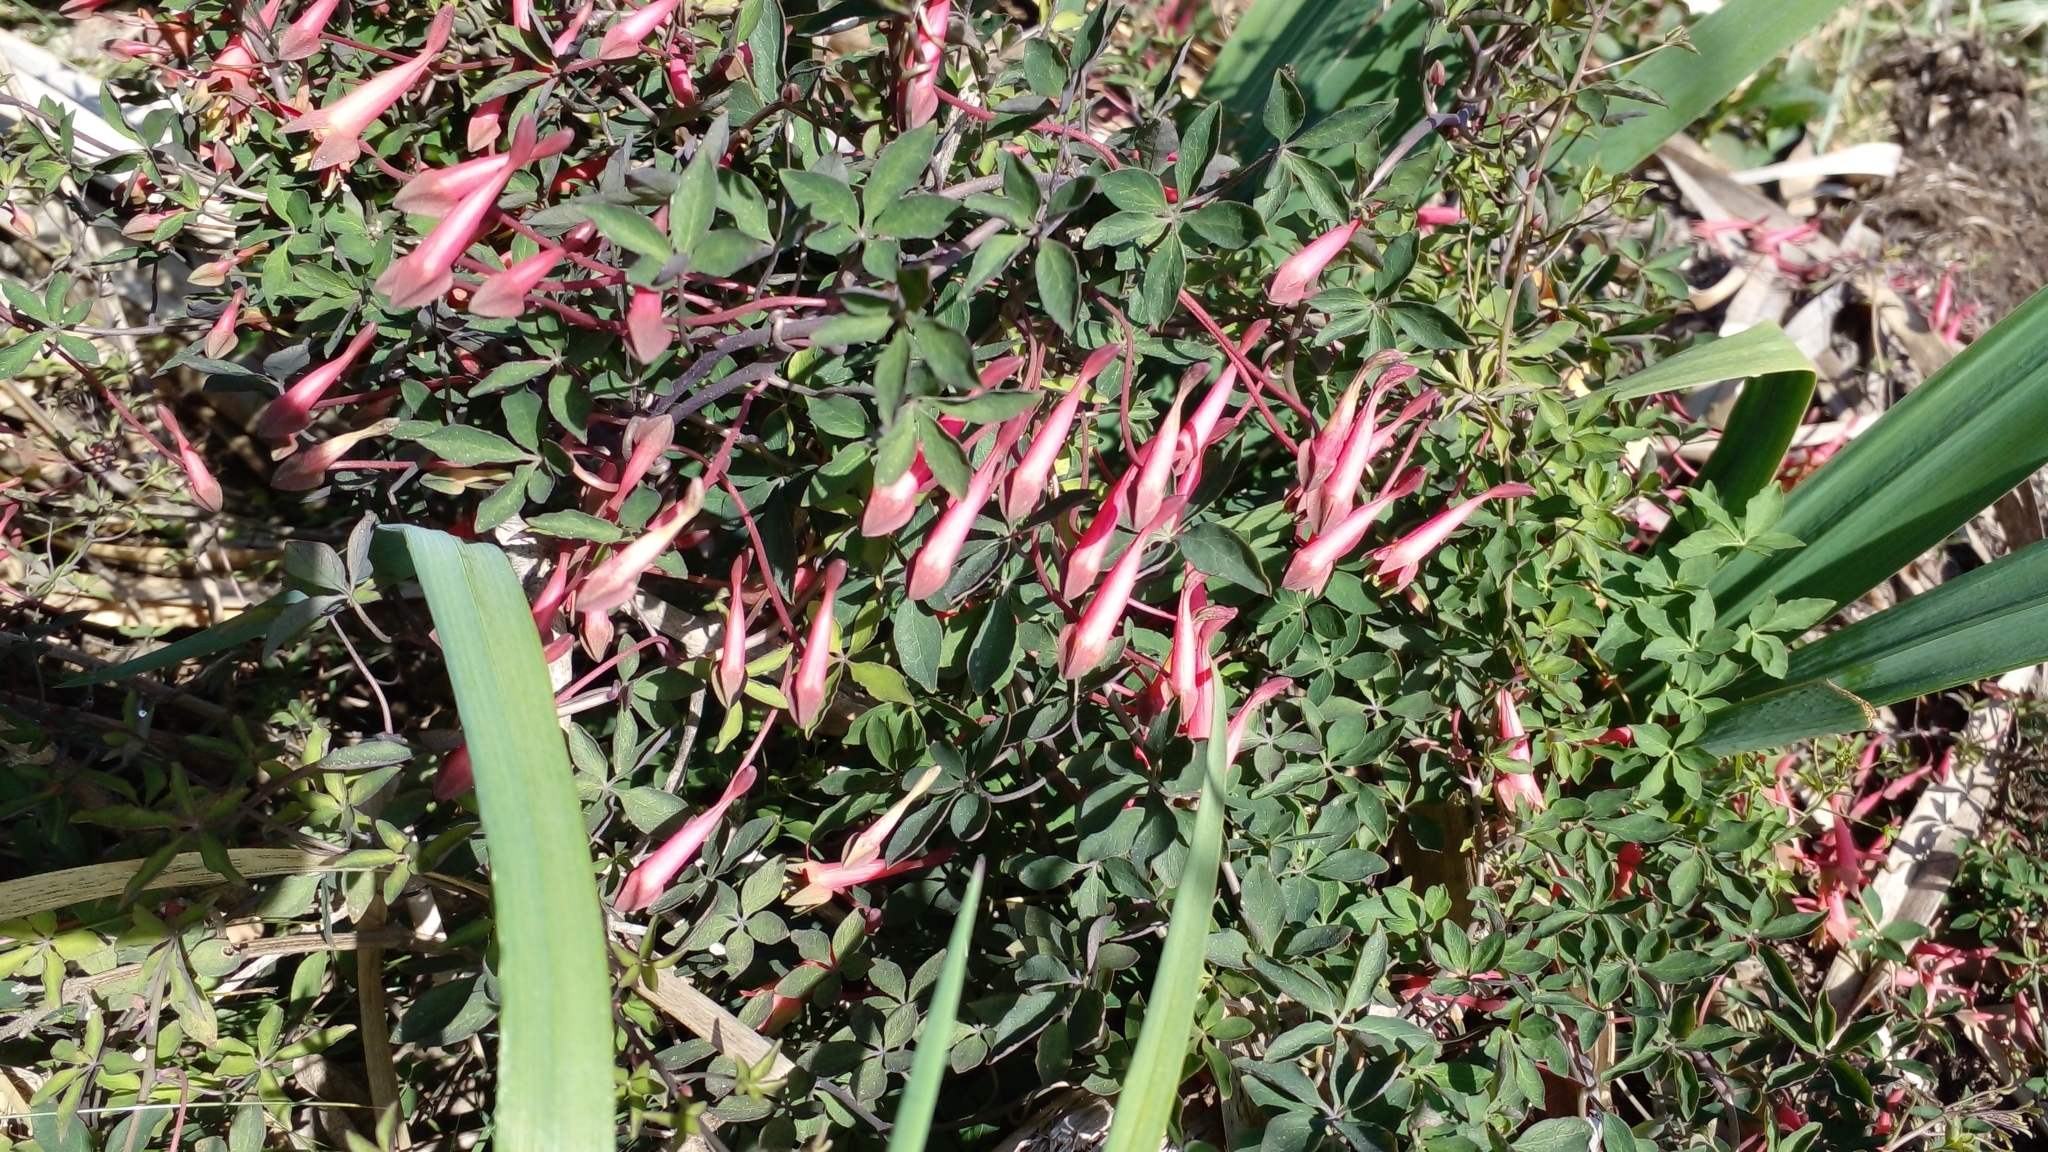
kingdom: Plantae
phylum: Tracheophyta
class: Magnoliopsida
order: Brassicales
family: Tropaeolaceae
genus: Tropaeolum
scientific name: Tropaeolum pentaphyllum
